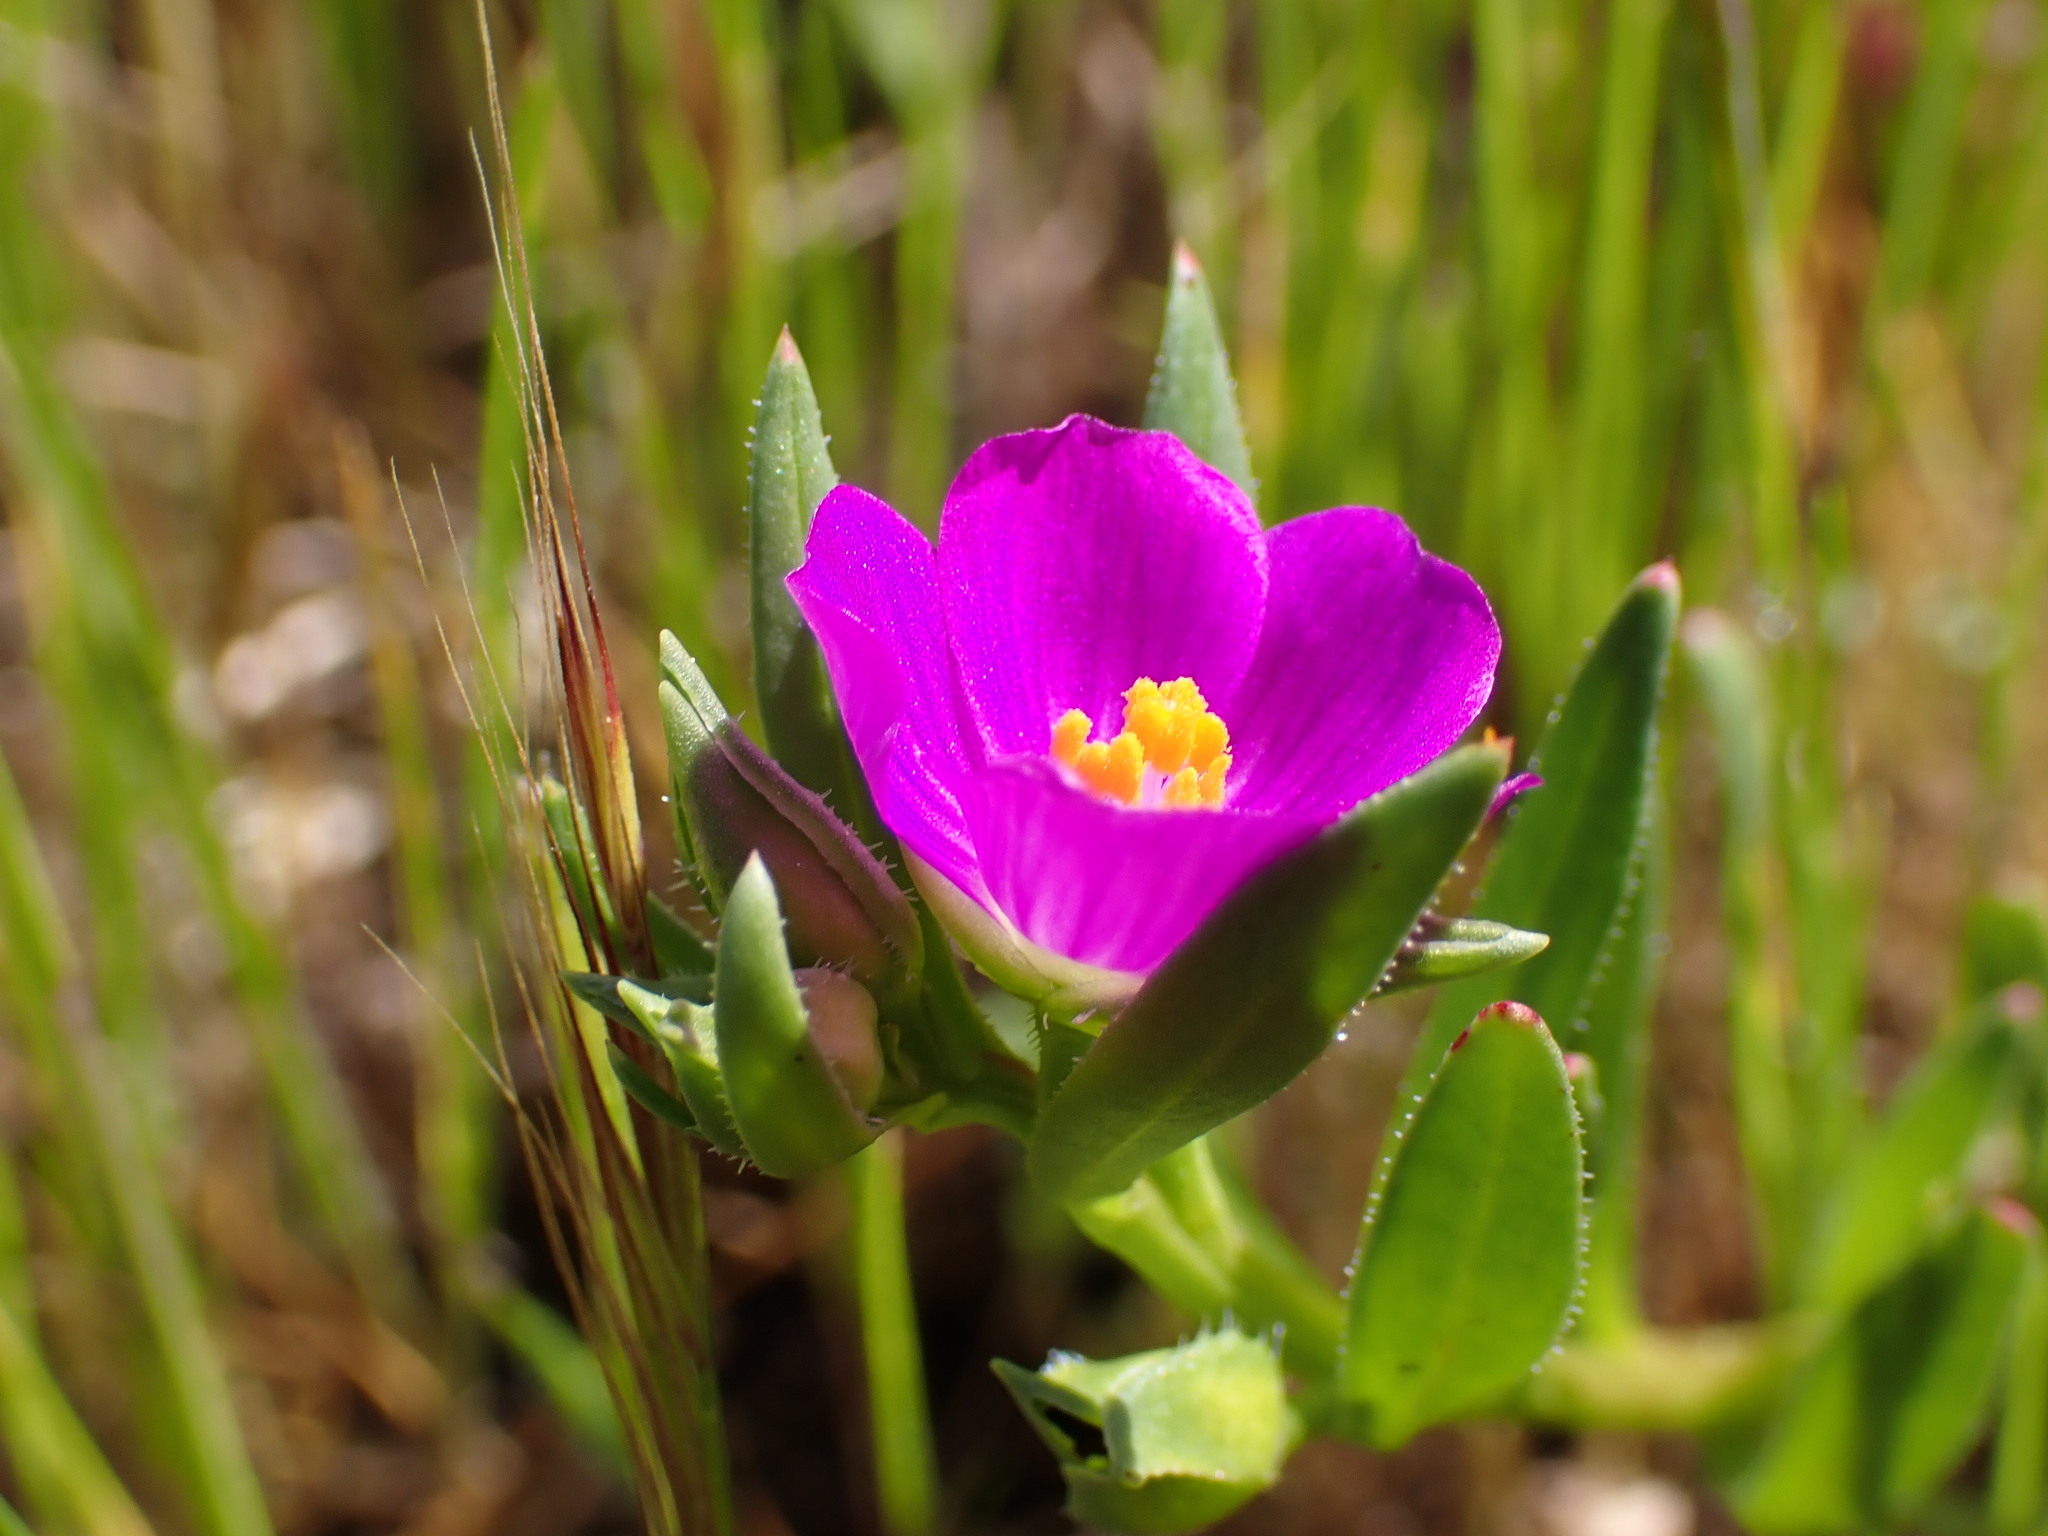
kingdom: Plantae
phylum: Tracheophyta
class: Magnoliopsida
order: Caryophyllales
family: Montiaceae
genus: Calandrinia
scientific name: Calandrinia menziesii
